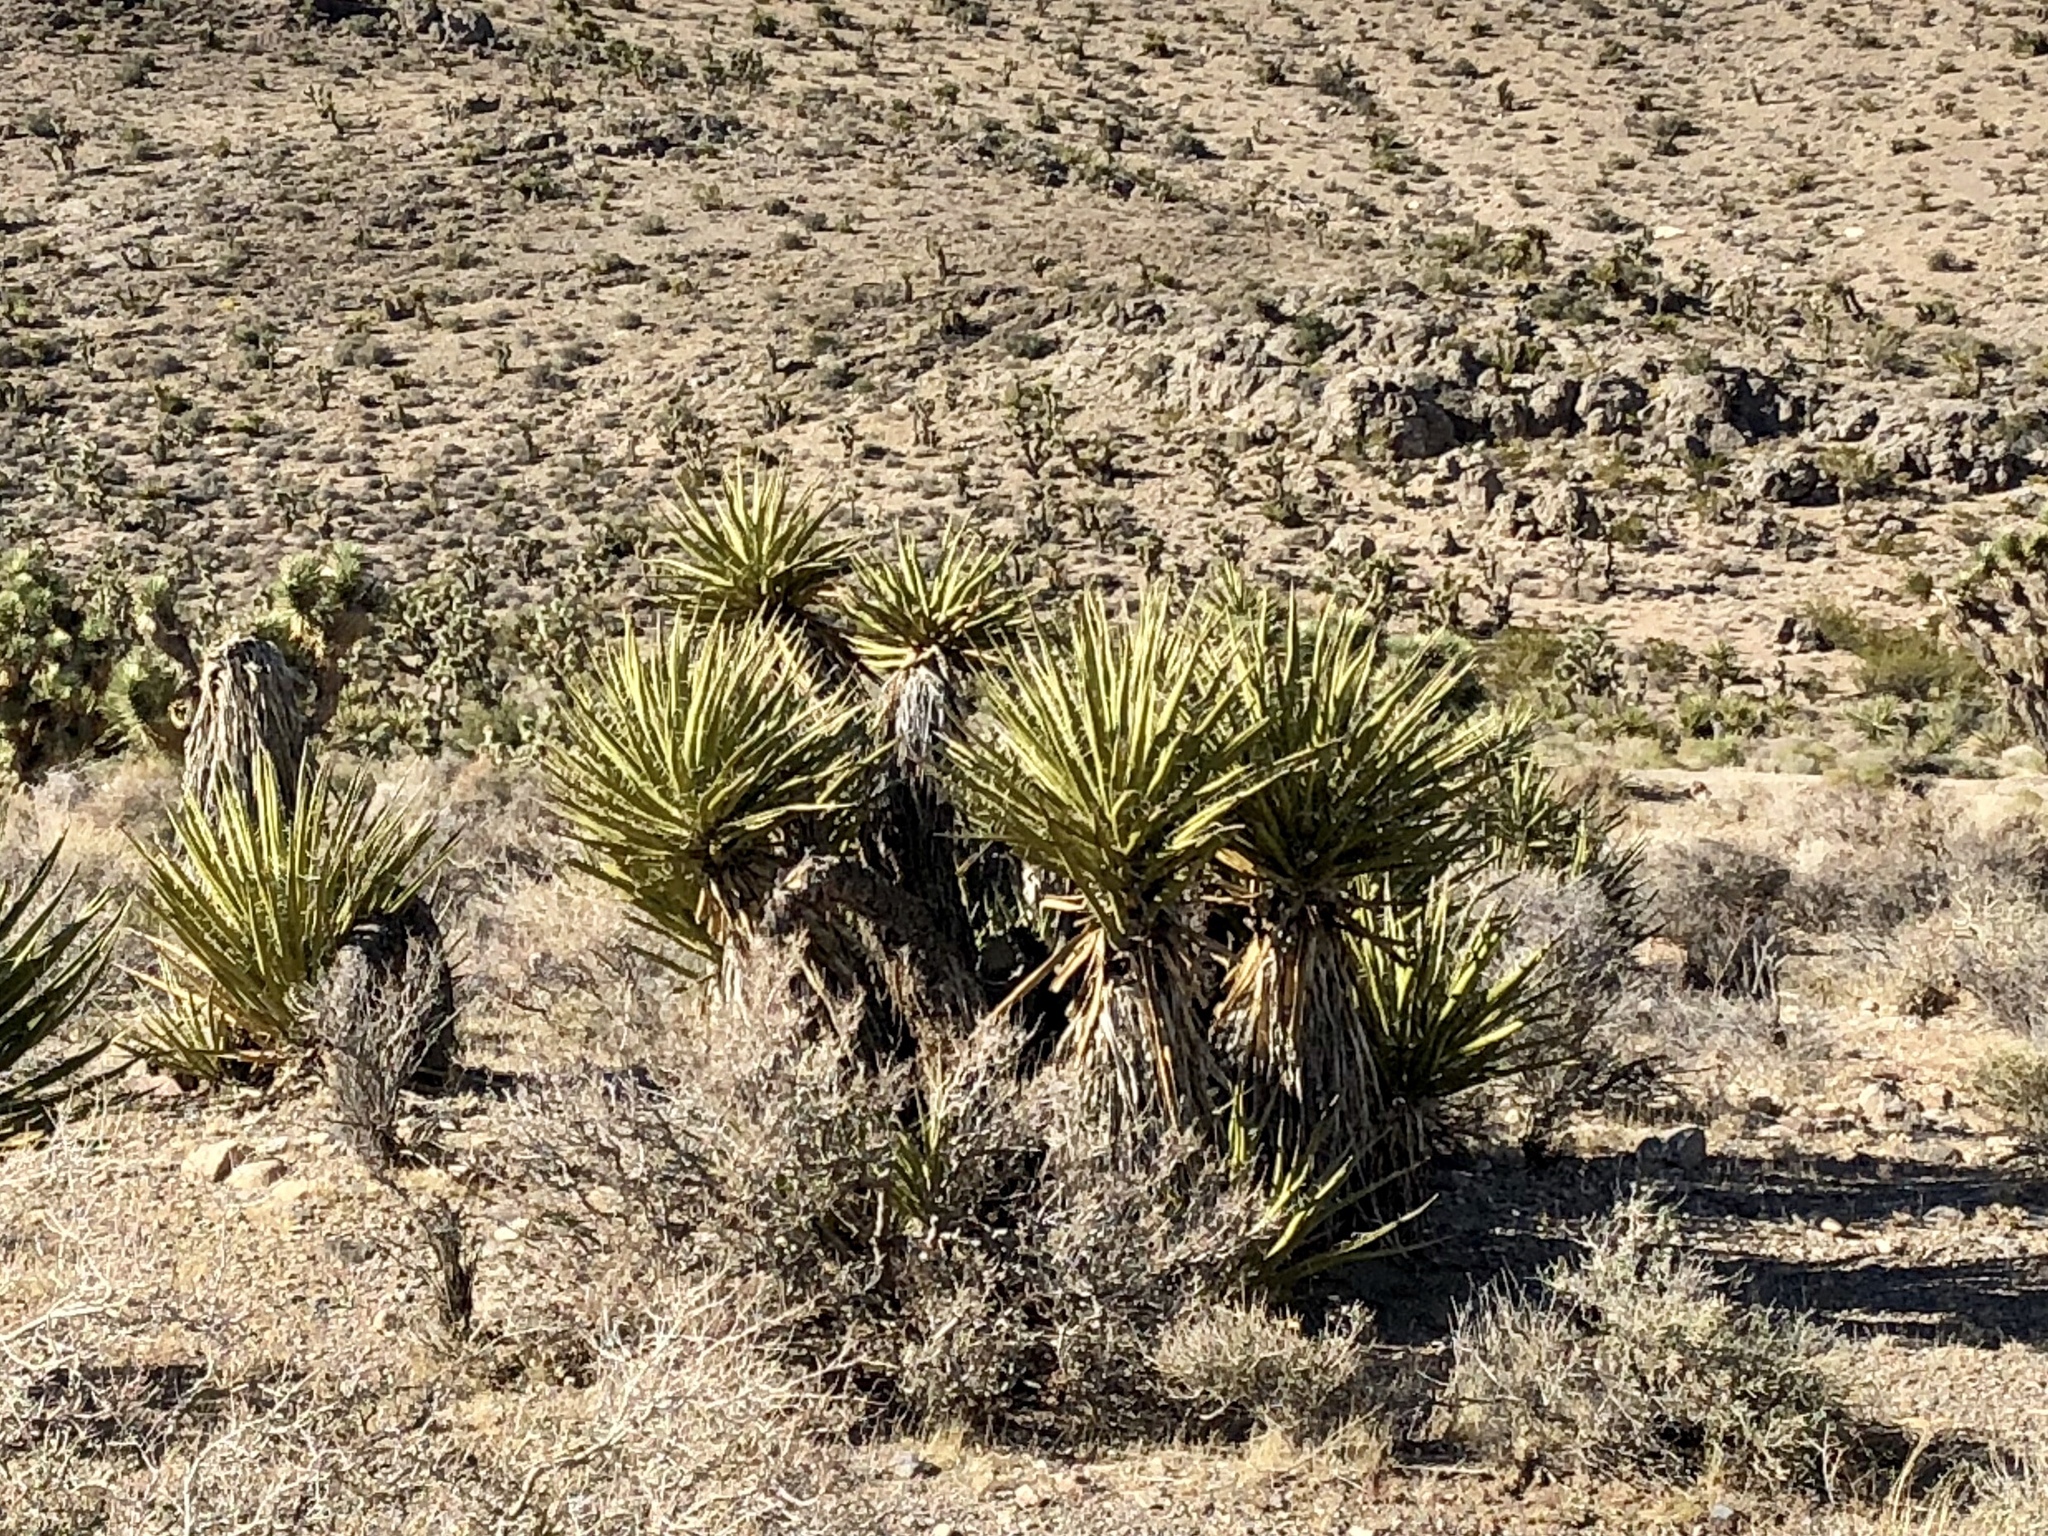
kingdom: Plantae
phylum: Tracheophyta
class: Liliopsida
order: Asparagales
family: Asparagaceae
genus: Yucca
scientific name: Yucca schidigera
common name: Mojave yucca
